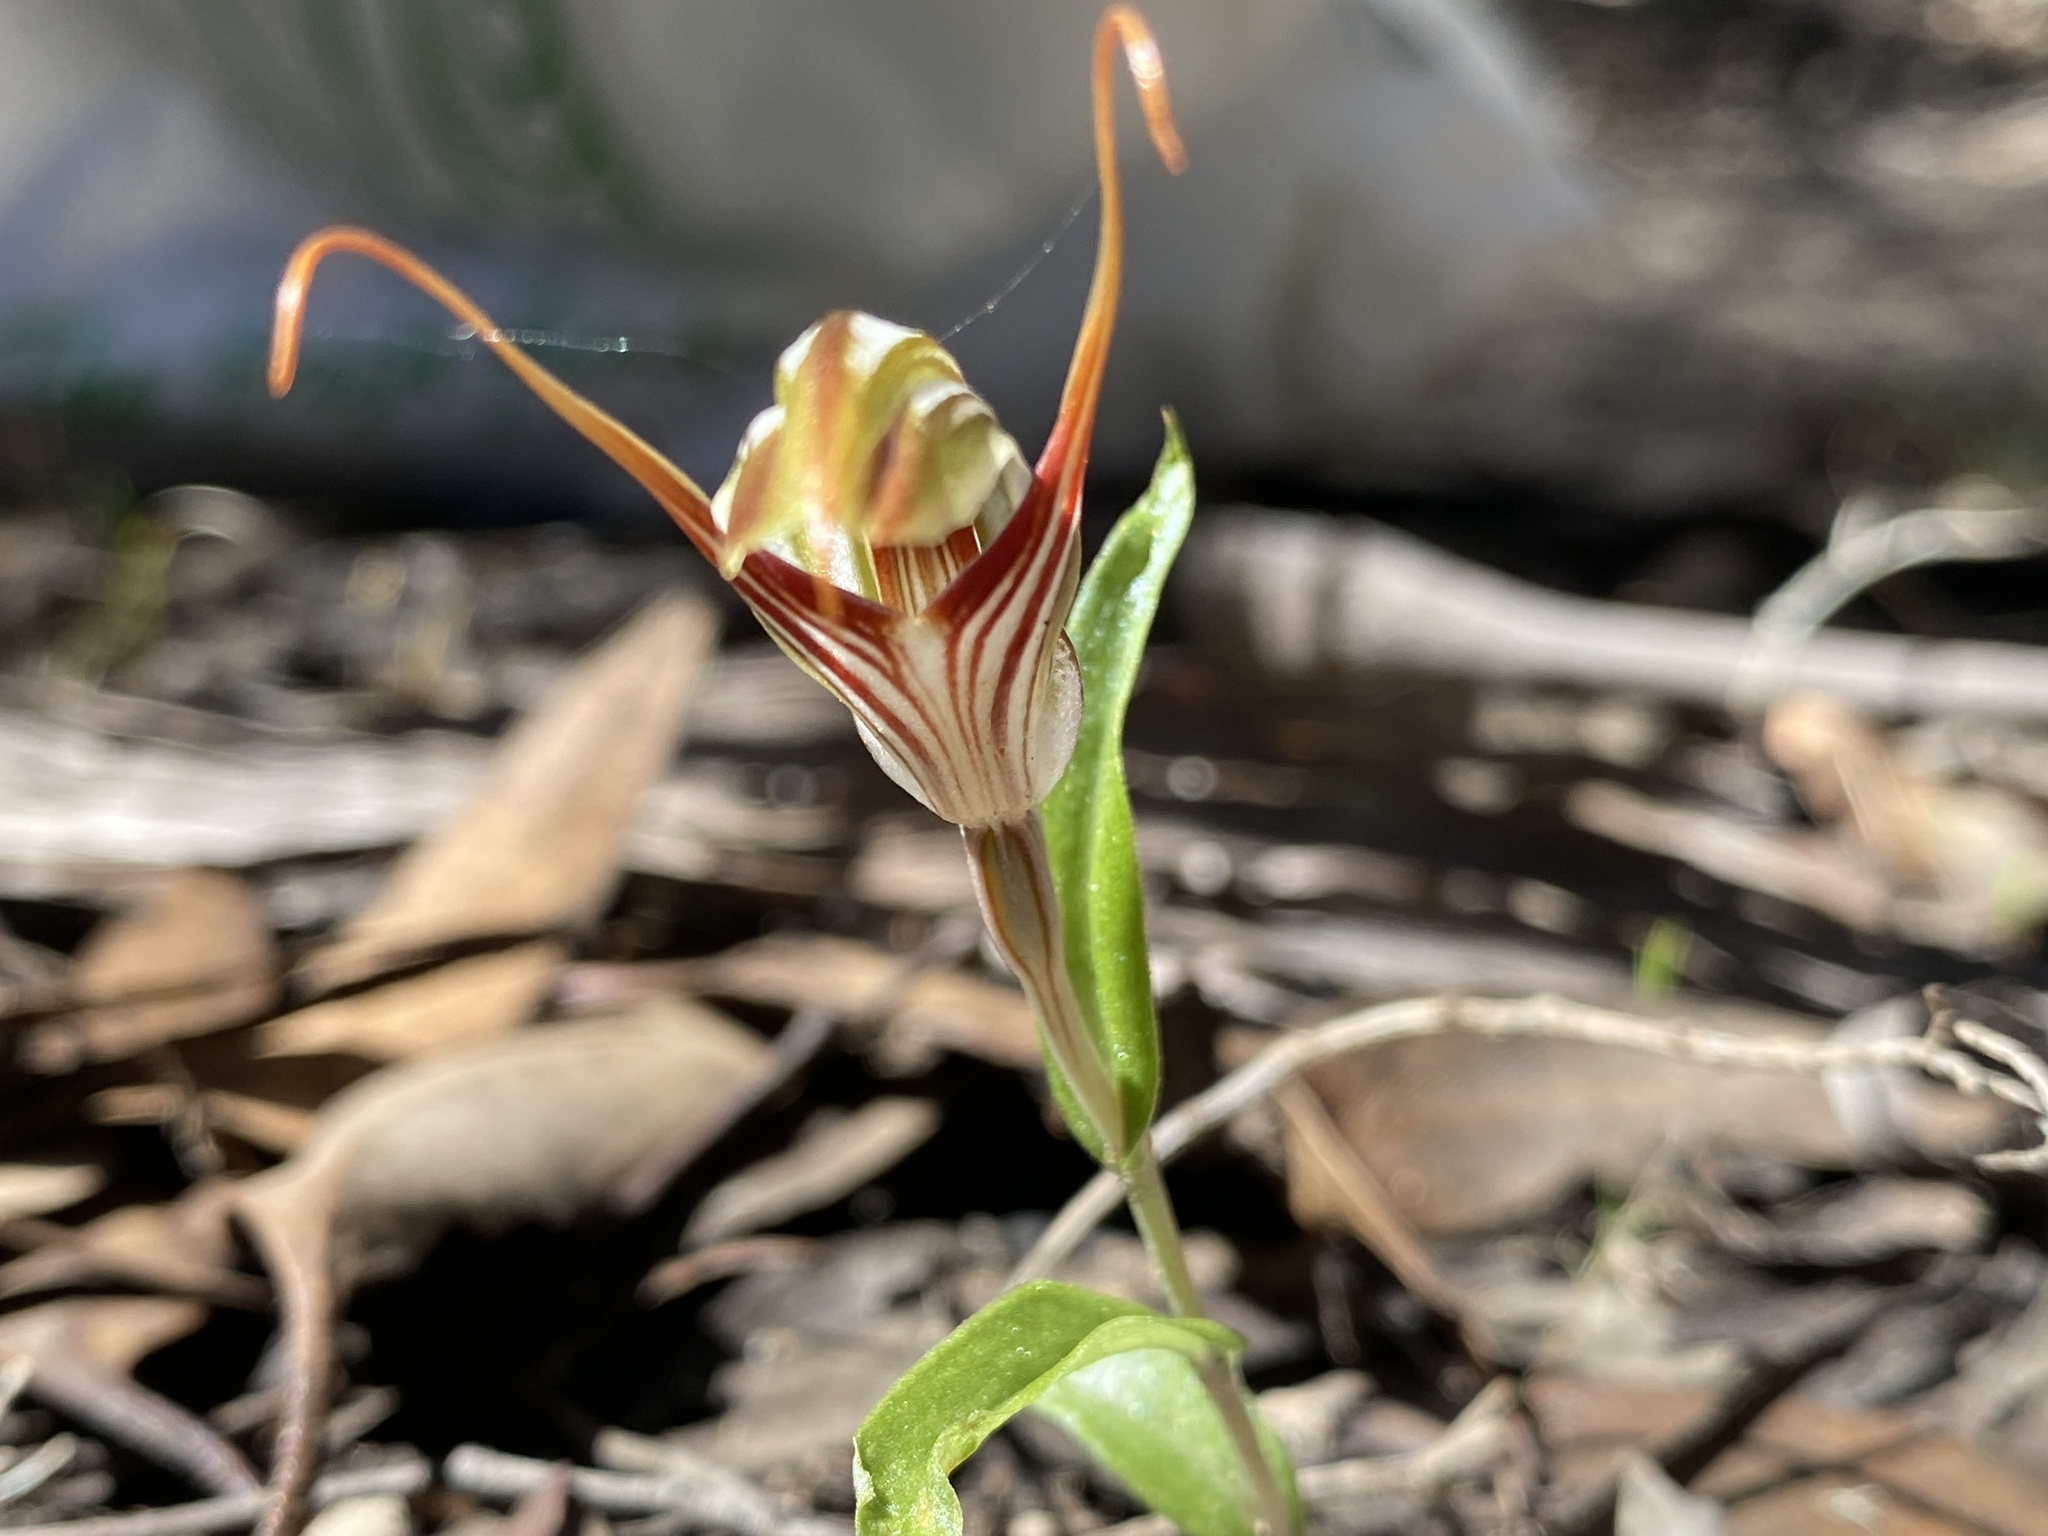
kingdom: Plantae
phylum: Tracheophyta
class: Liliopsida
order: Asparagales
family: Orchidaceae
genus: Pterostylis
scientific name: Pterostylis erythroconcha
